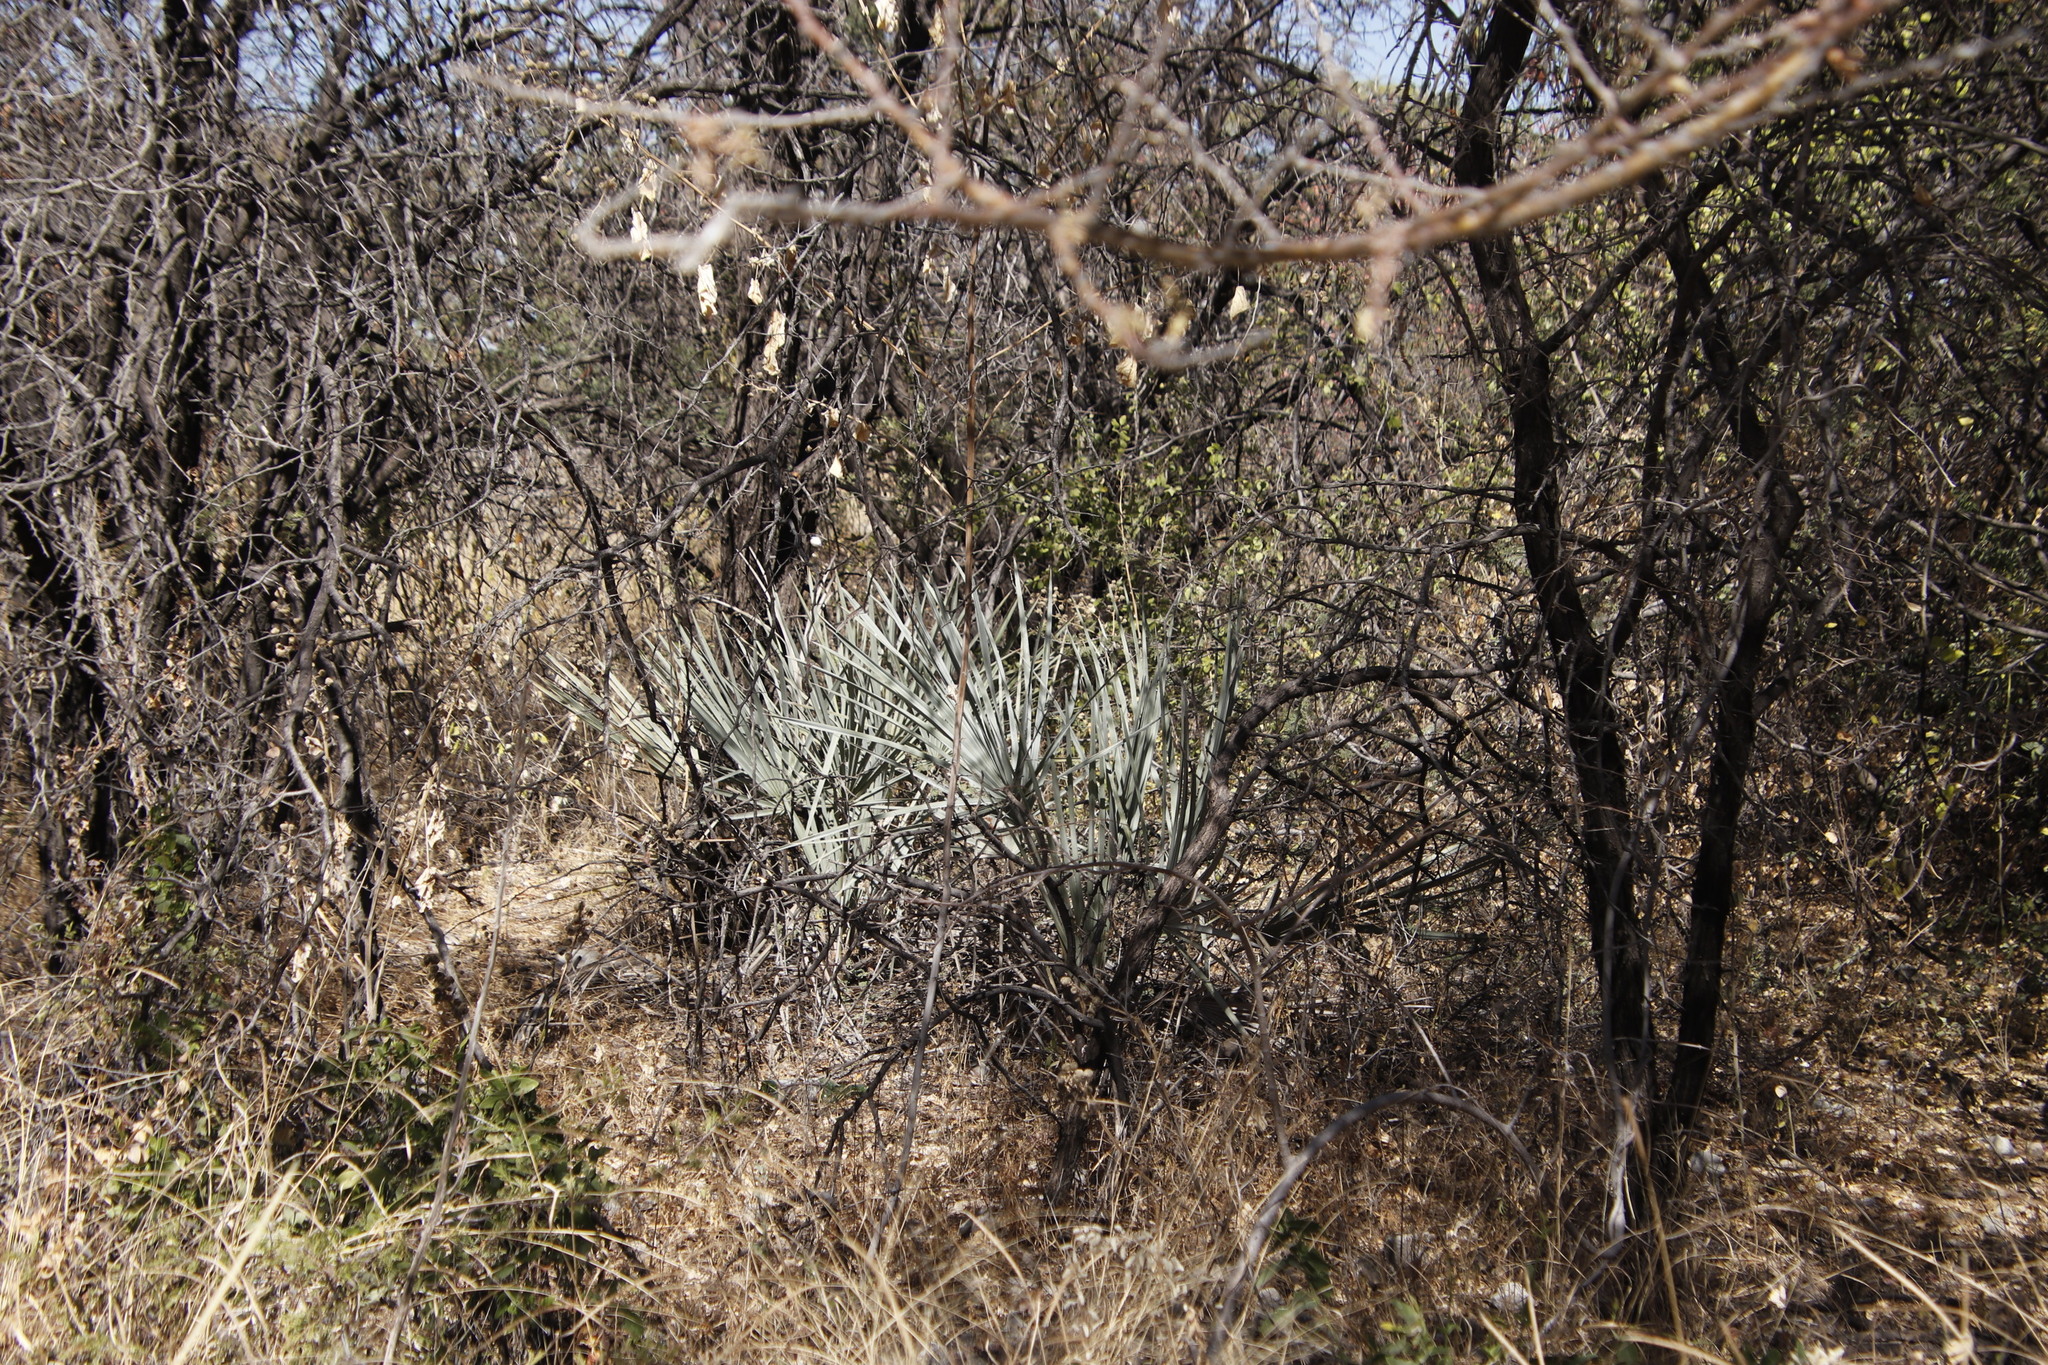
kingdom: Plantae
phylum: Tracheophyta
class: Liliopsida
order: Arecales
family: Arecaceae
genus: Hyphaene
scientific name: Hyphaene petersiana
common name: African ivory nut palm
